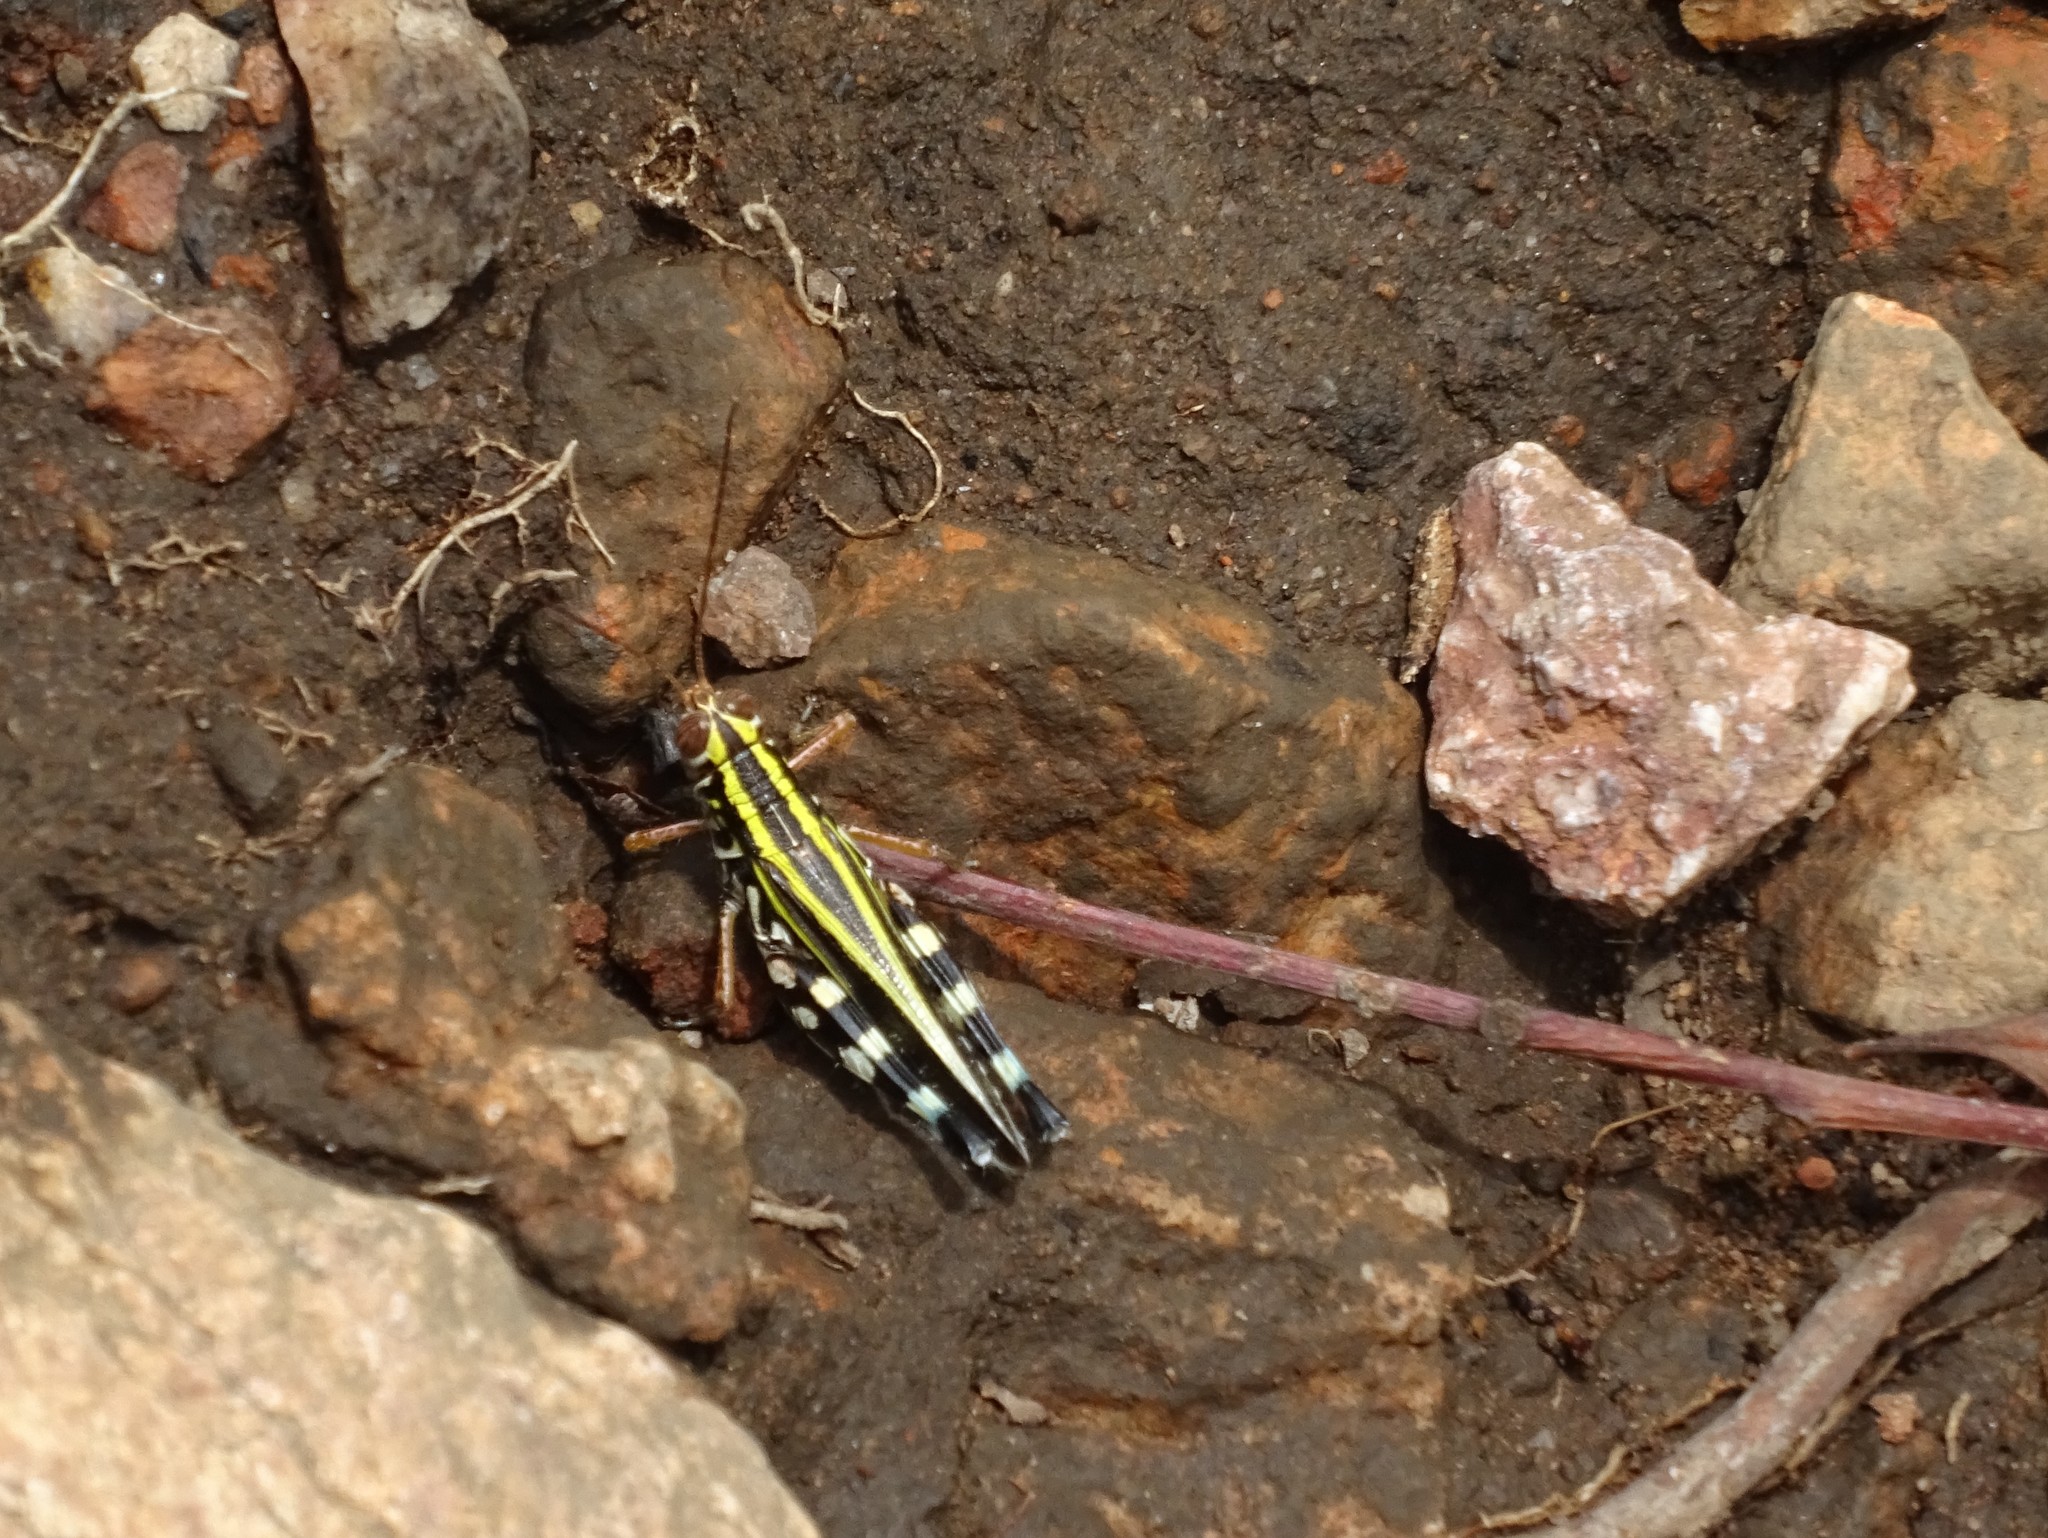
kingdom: Animalia
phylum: Arthropoda
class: Insecta
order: Orthoptera
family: Acrididae
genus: Zebratula
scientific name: Zebratula flavonigra
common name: Zebra grasshopper
